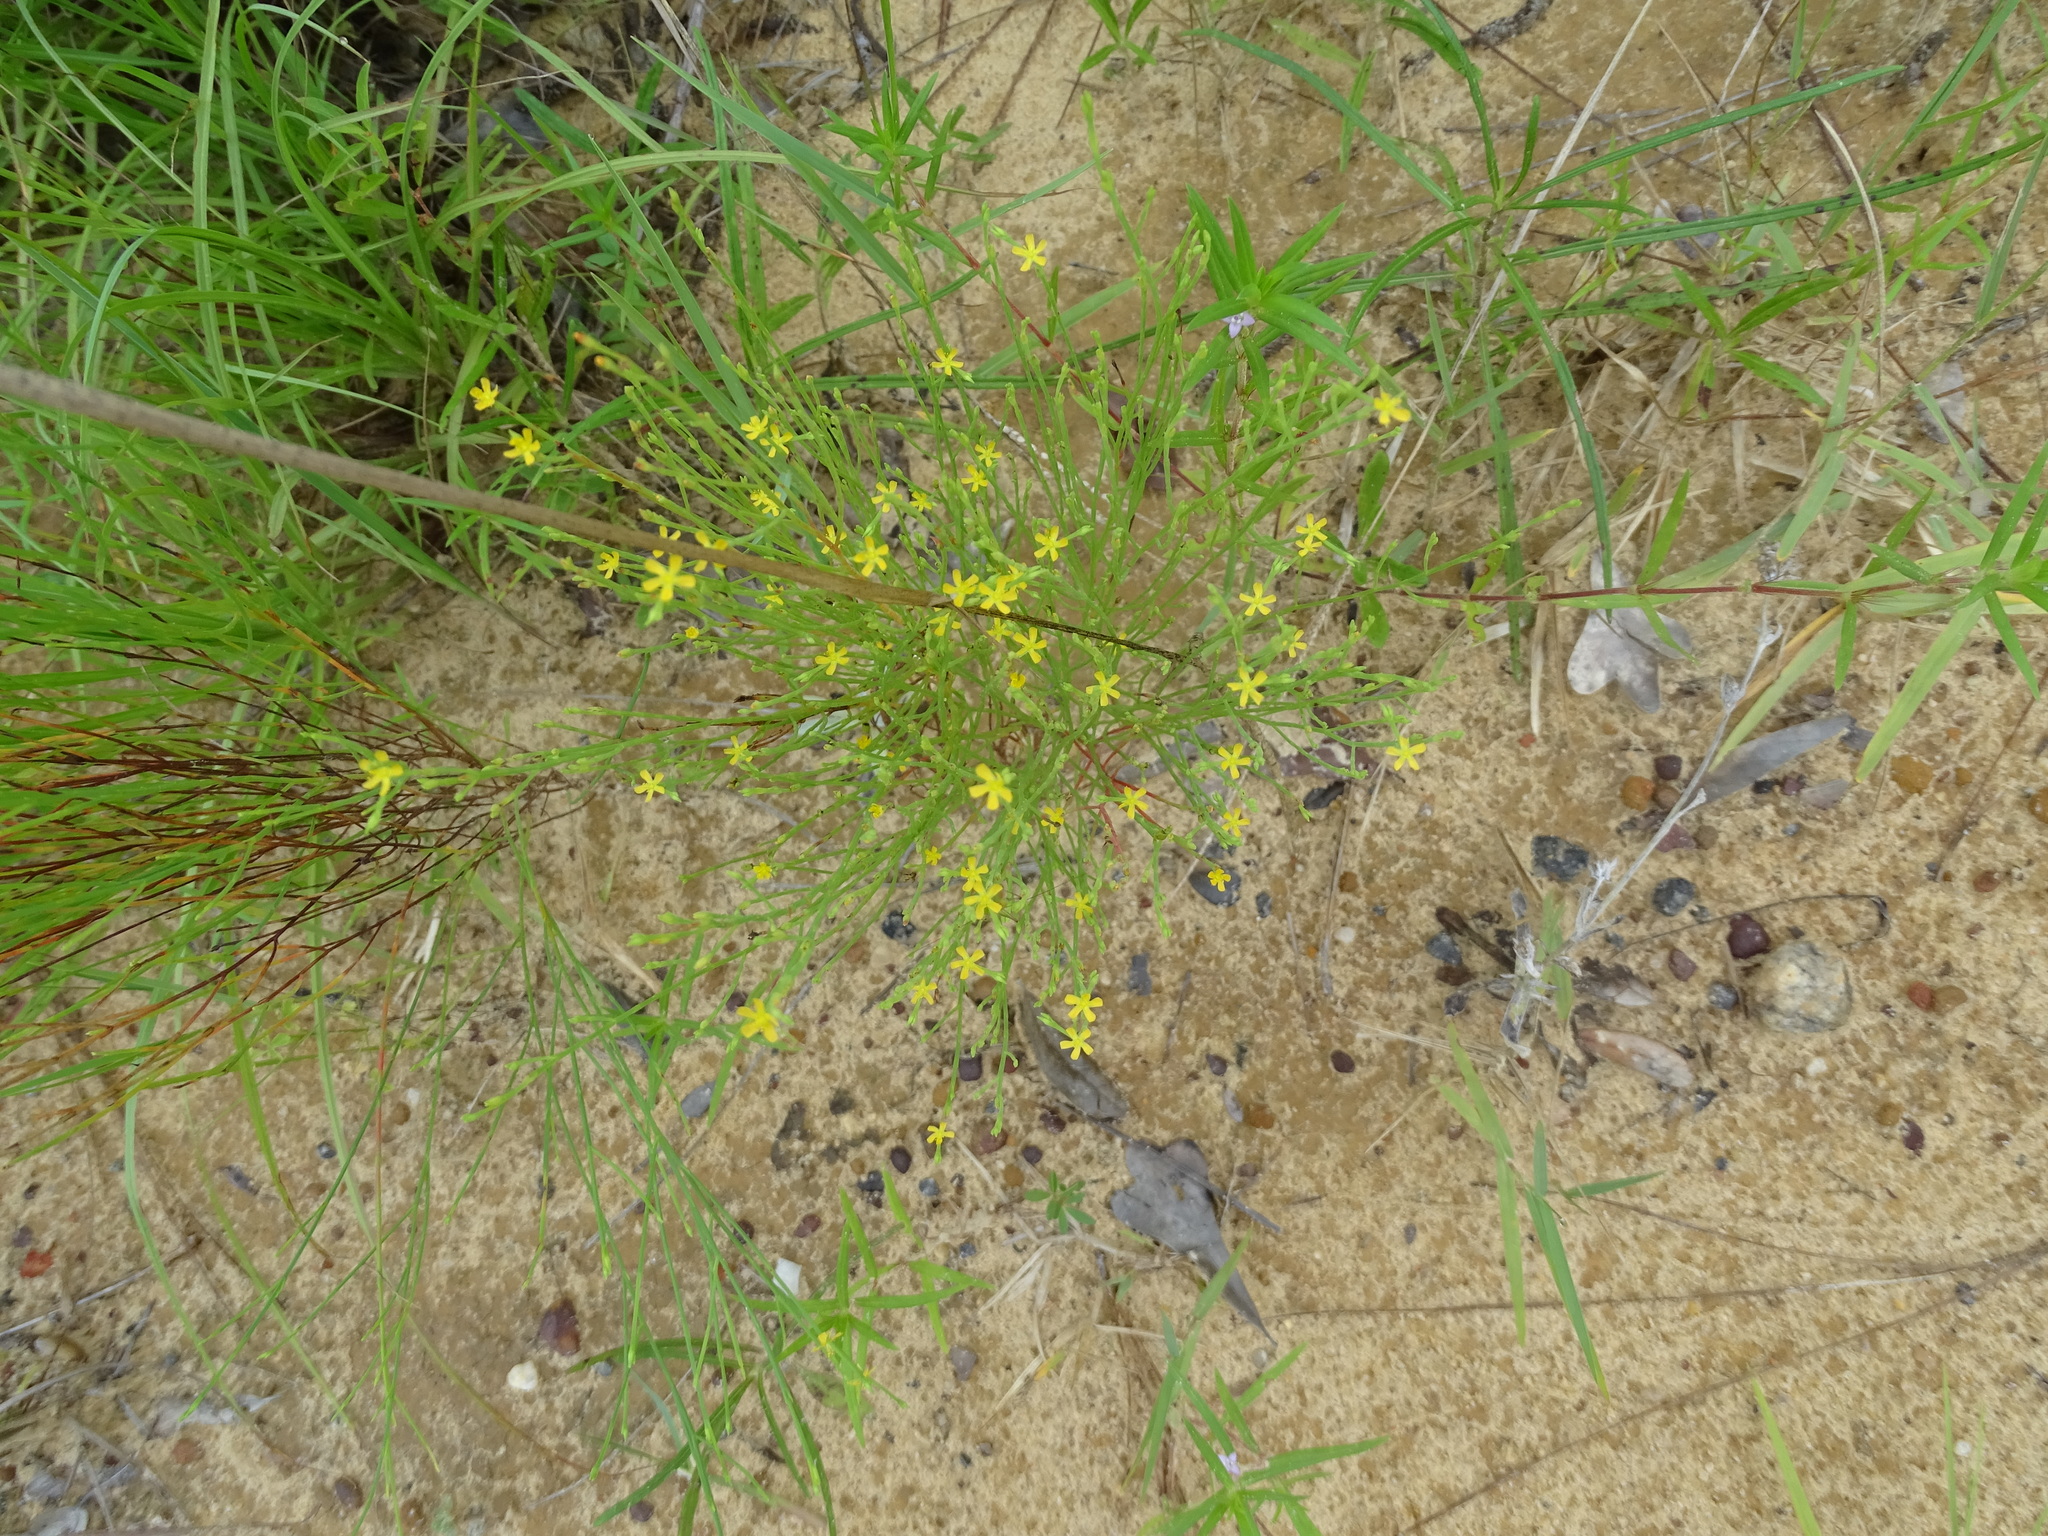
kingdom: Plantae
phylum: Tracheophyta
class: Magnoliopsida
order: Malpighiales
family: Hypericaceae
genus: Hypericum
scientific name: Hypericum gentianoides
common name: Gentian-leaved st. john's-wort
